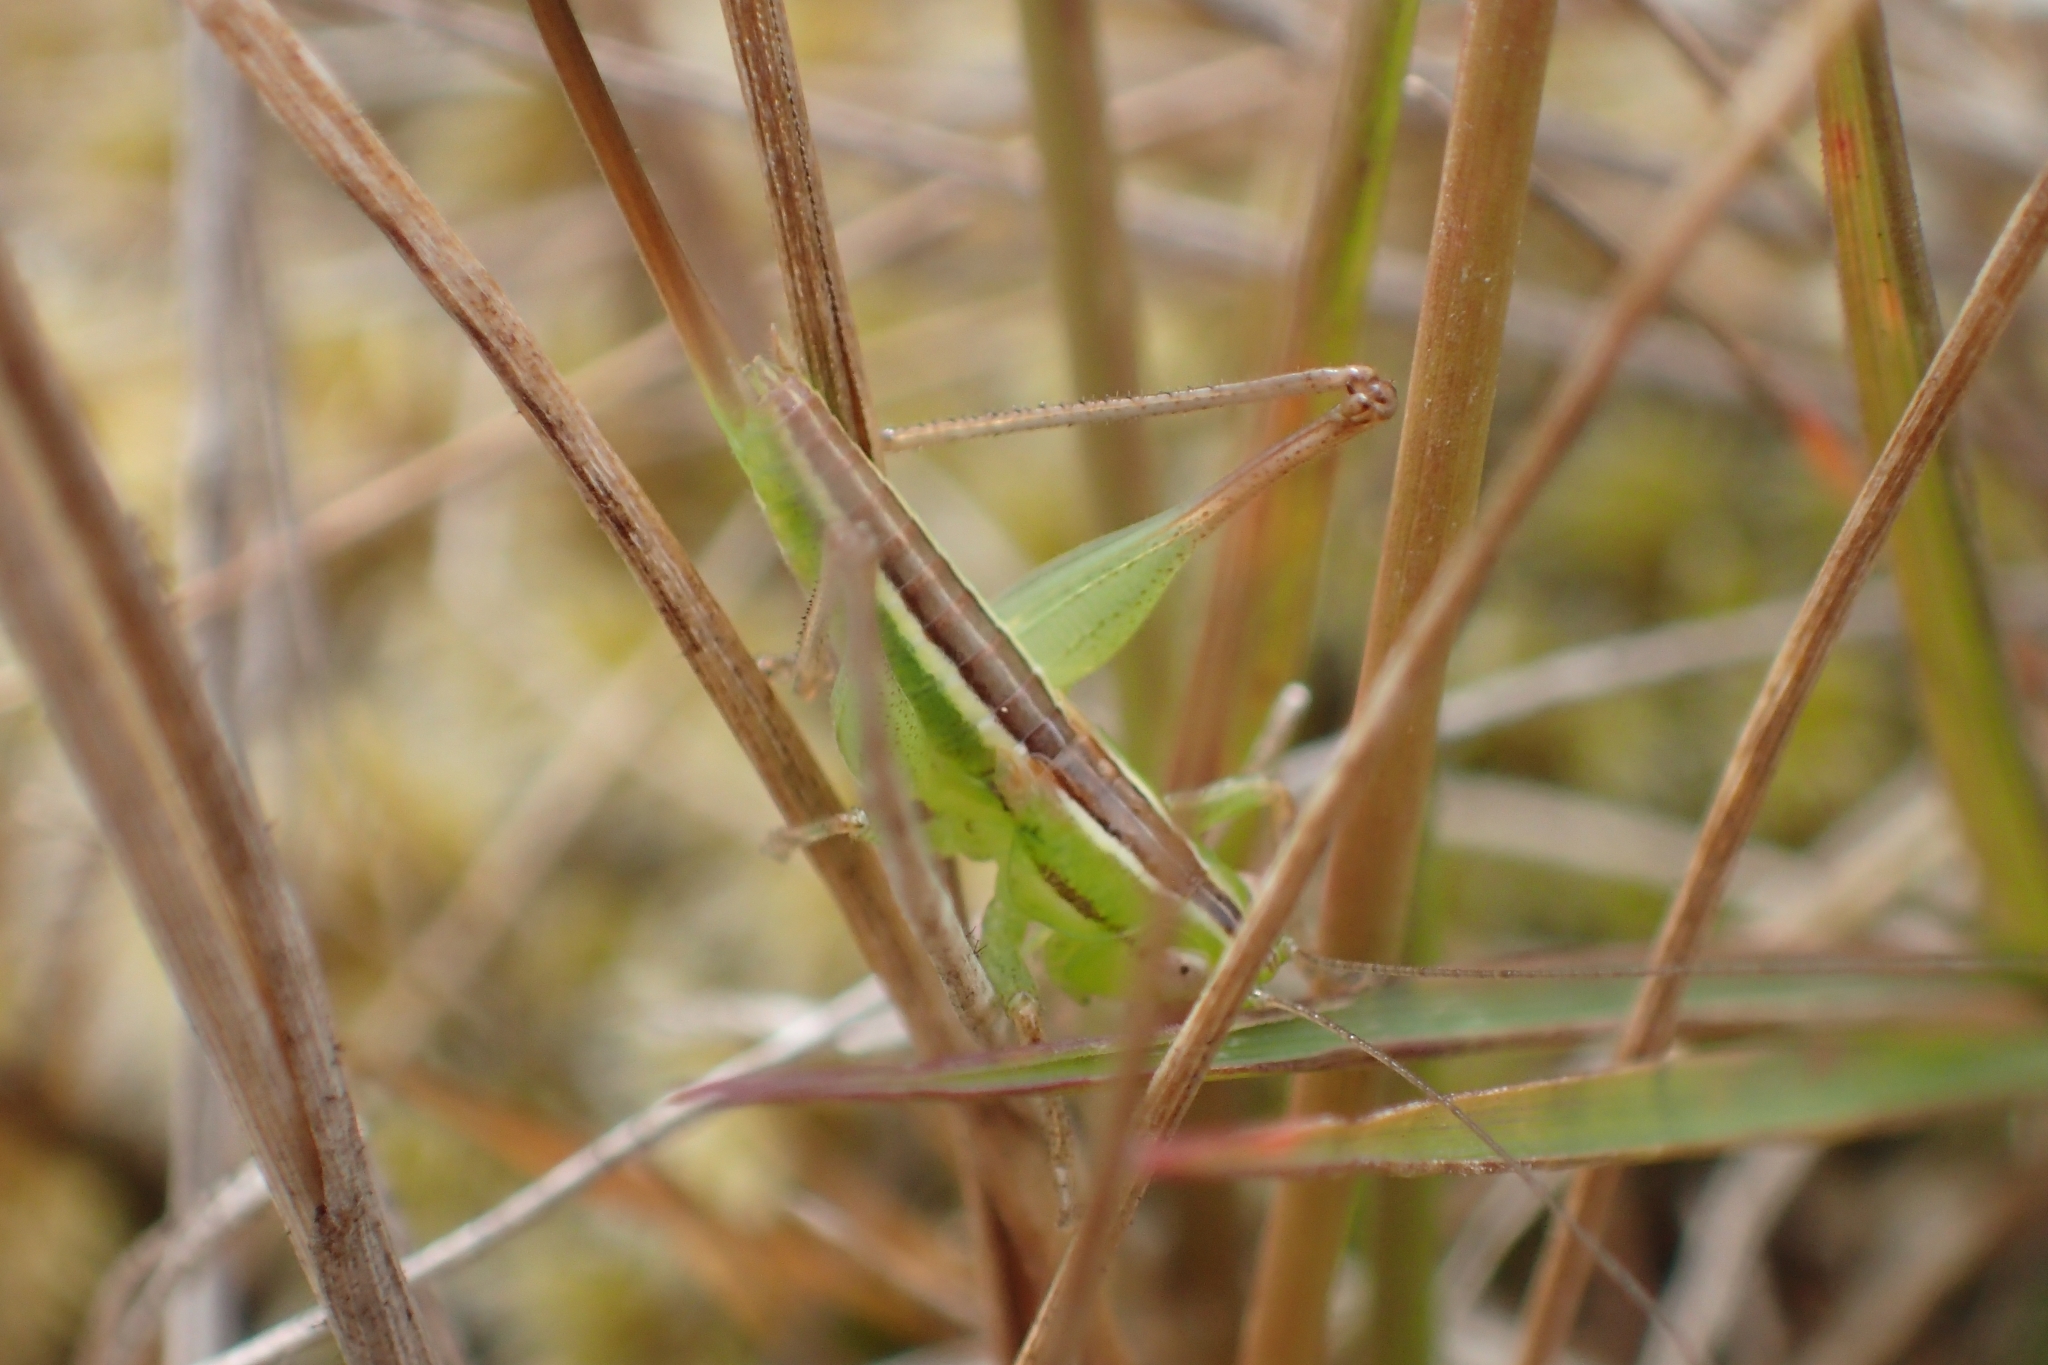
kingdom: Animalia
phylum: Arthropoda
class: Insecta
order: Orthoptera
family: Tettigoniidae
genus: Conocephalus
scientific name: Conocephalus bilineatus
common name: Small meadow katydid
